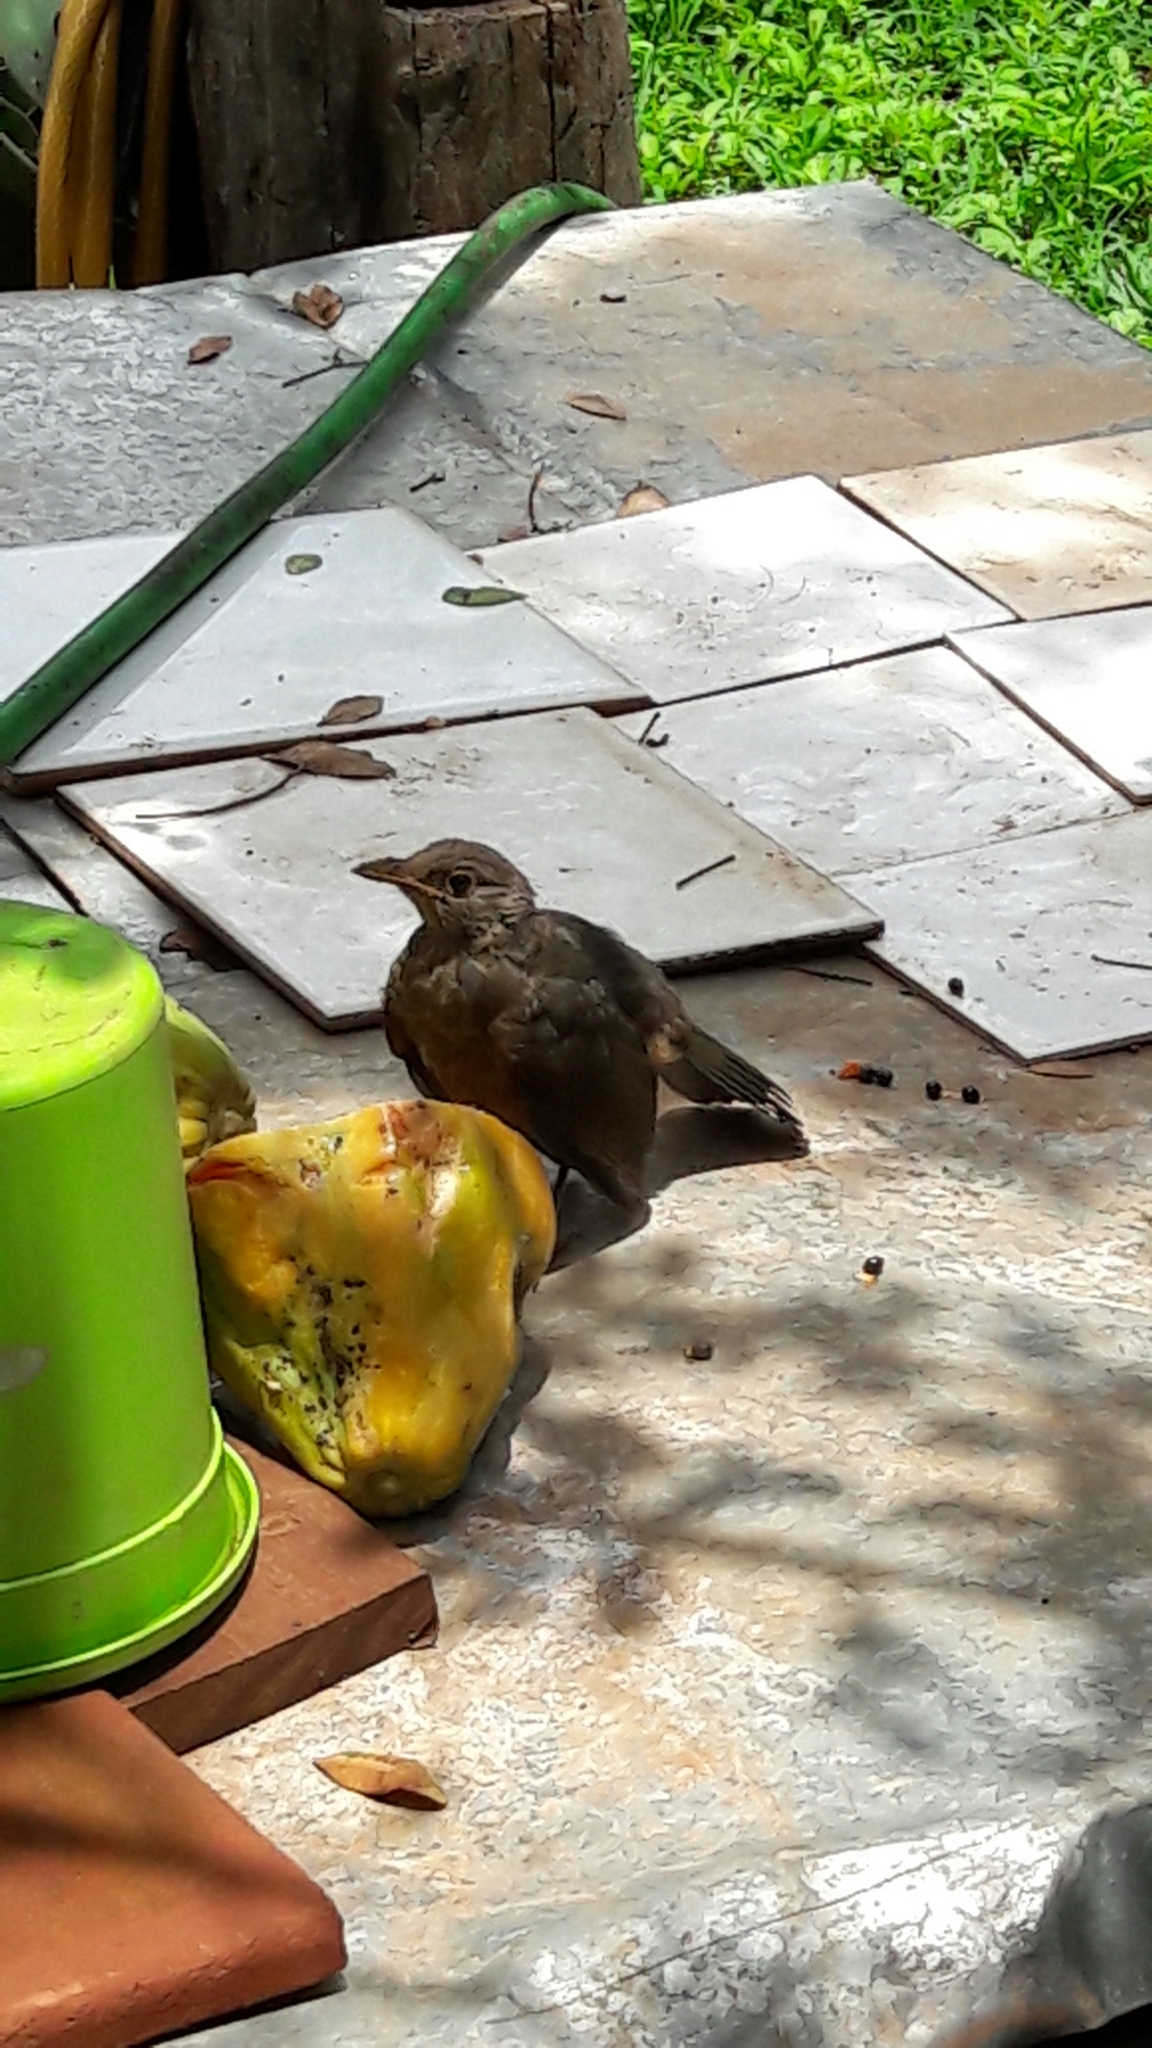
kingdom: Animalia
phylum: Chordata
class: Aves
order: Passeriformes
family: Turdidae
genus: Turdus
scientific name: Turdus rufiventris
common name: Rufous-bellied thrush
